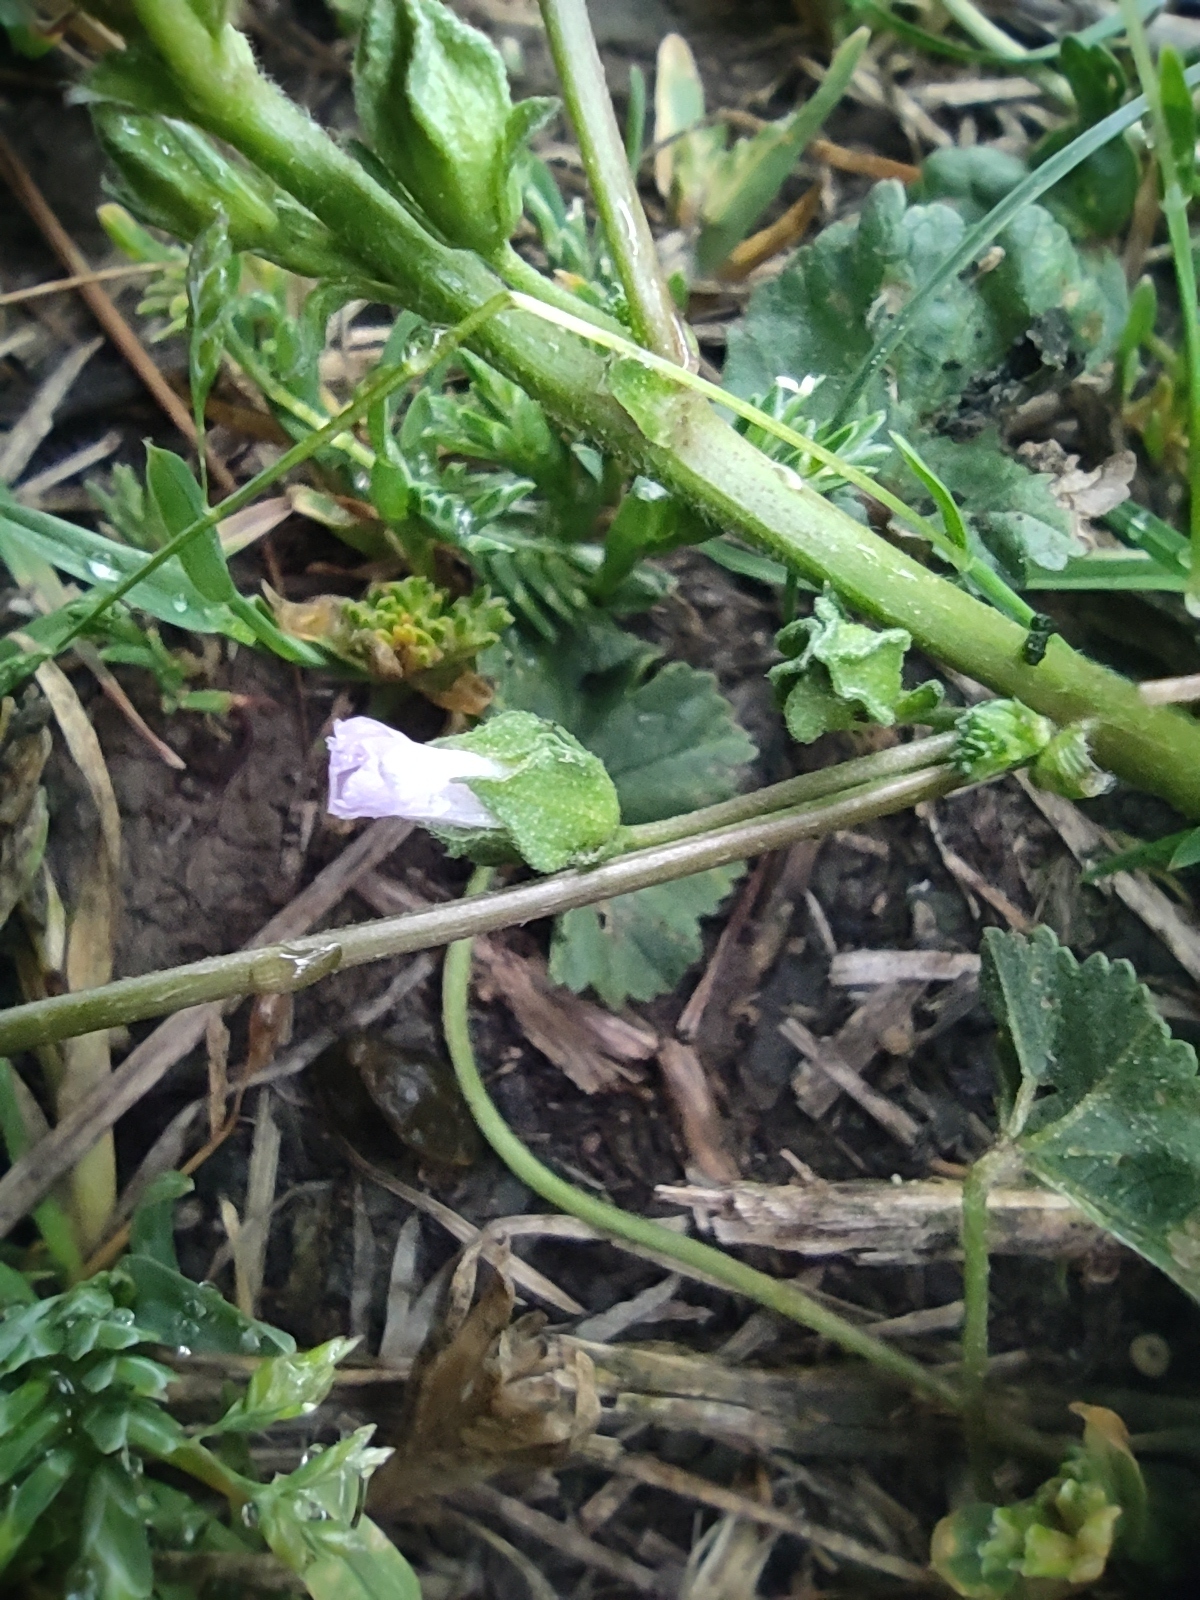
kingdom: Plantae
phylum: Tracheophyta
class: Magnoliopsida
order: Malvales
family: Malvaceae
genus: Malva
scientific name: Malva neglecta
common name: Common mallow
